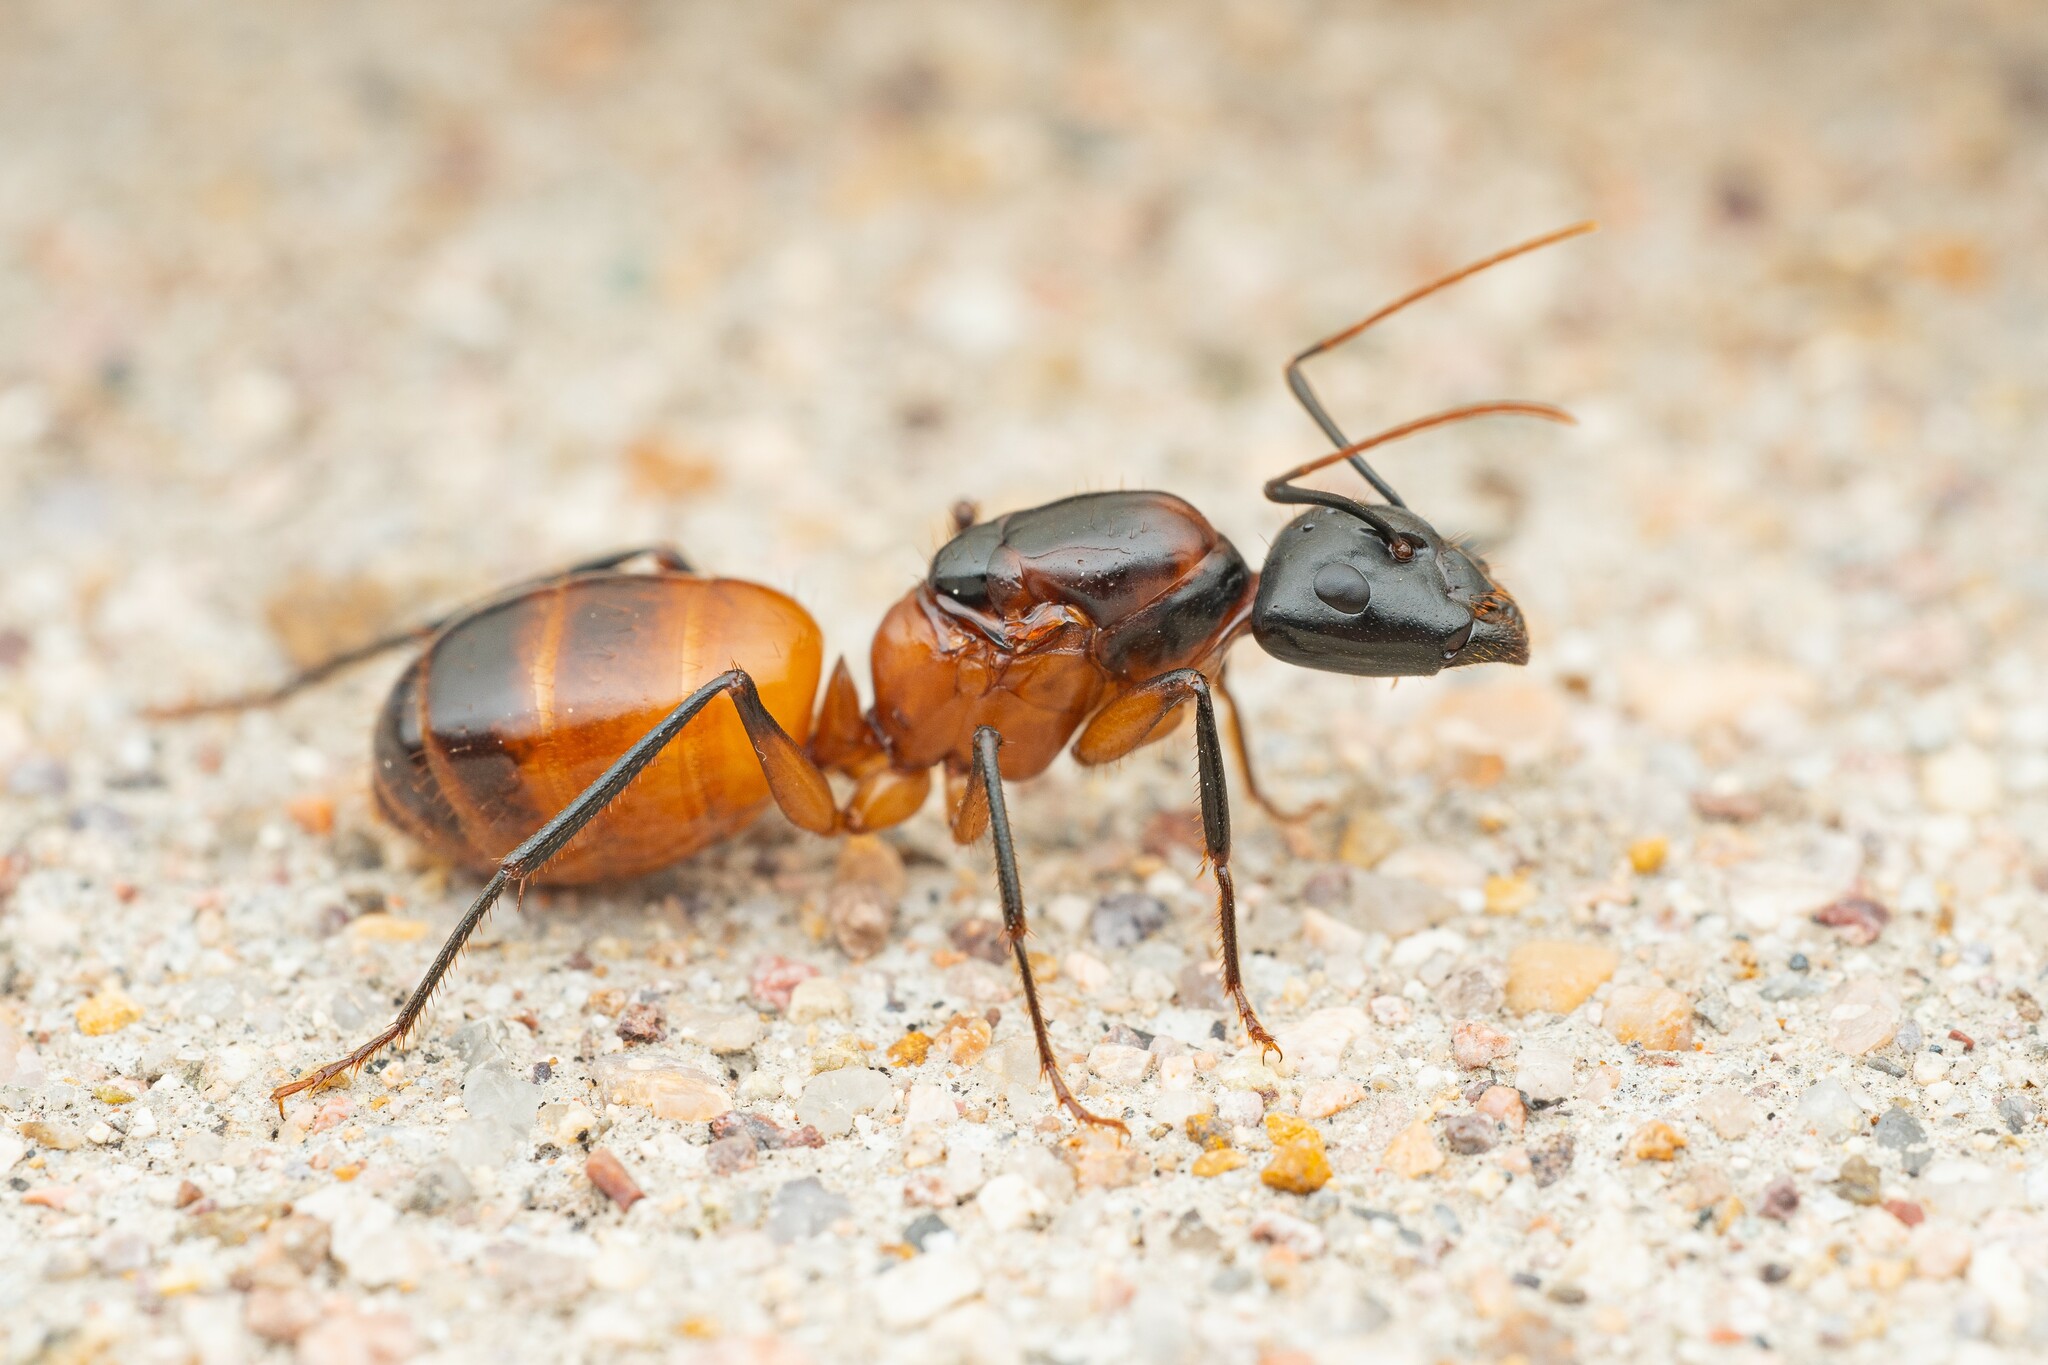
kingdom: Animalia
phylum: Arthropoda
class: Insecta
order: Hymenoptera
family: Formicidae
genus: Camponotus
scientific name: Camponotus ocreatus
